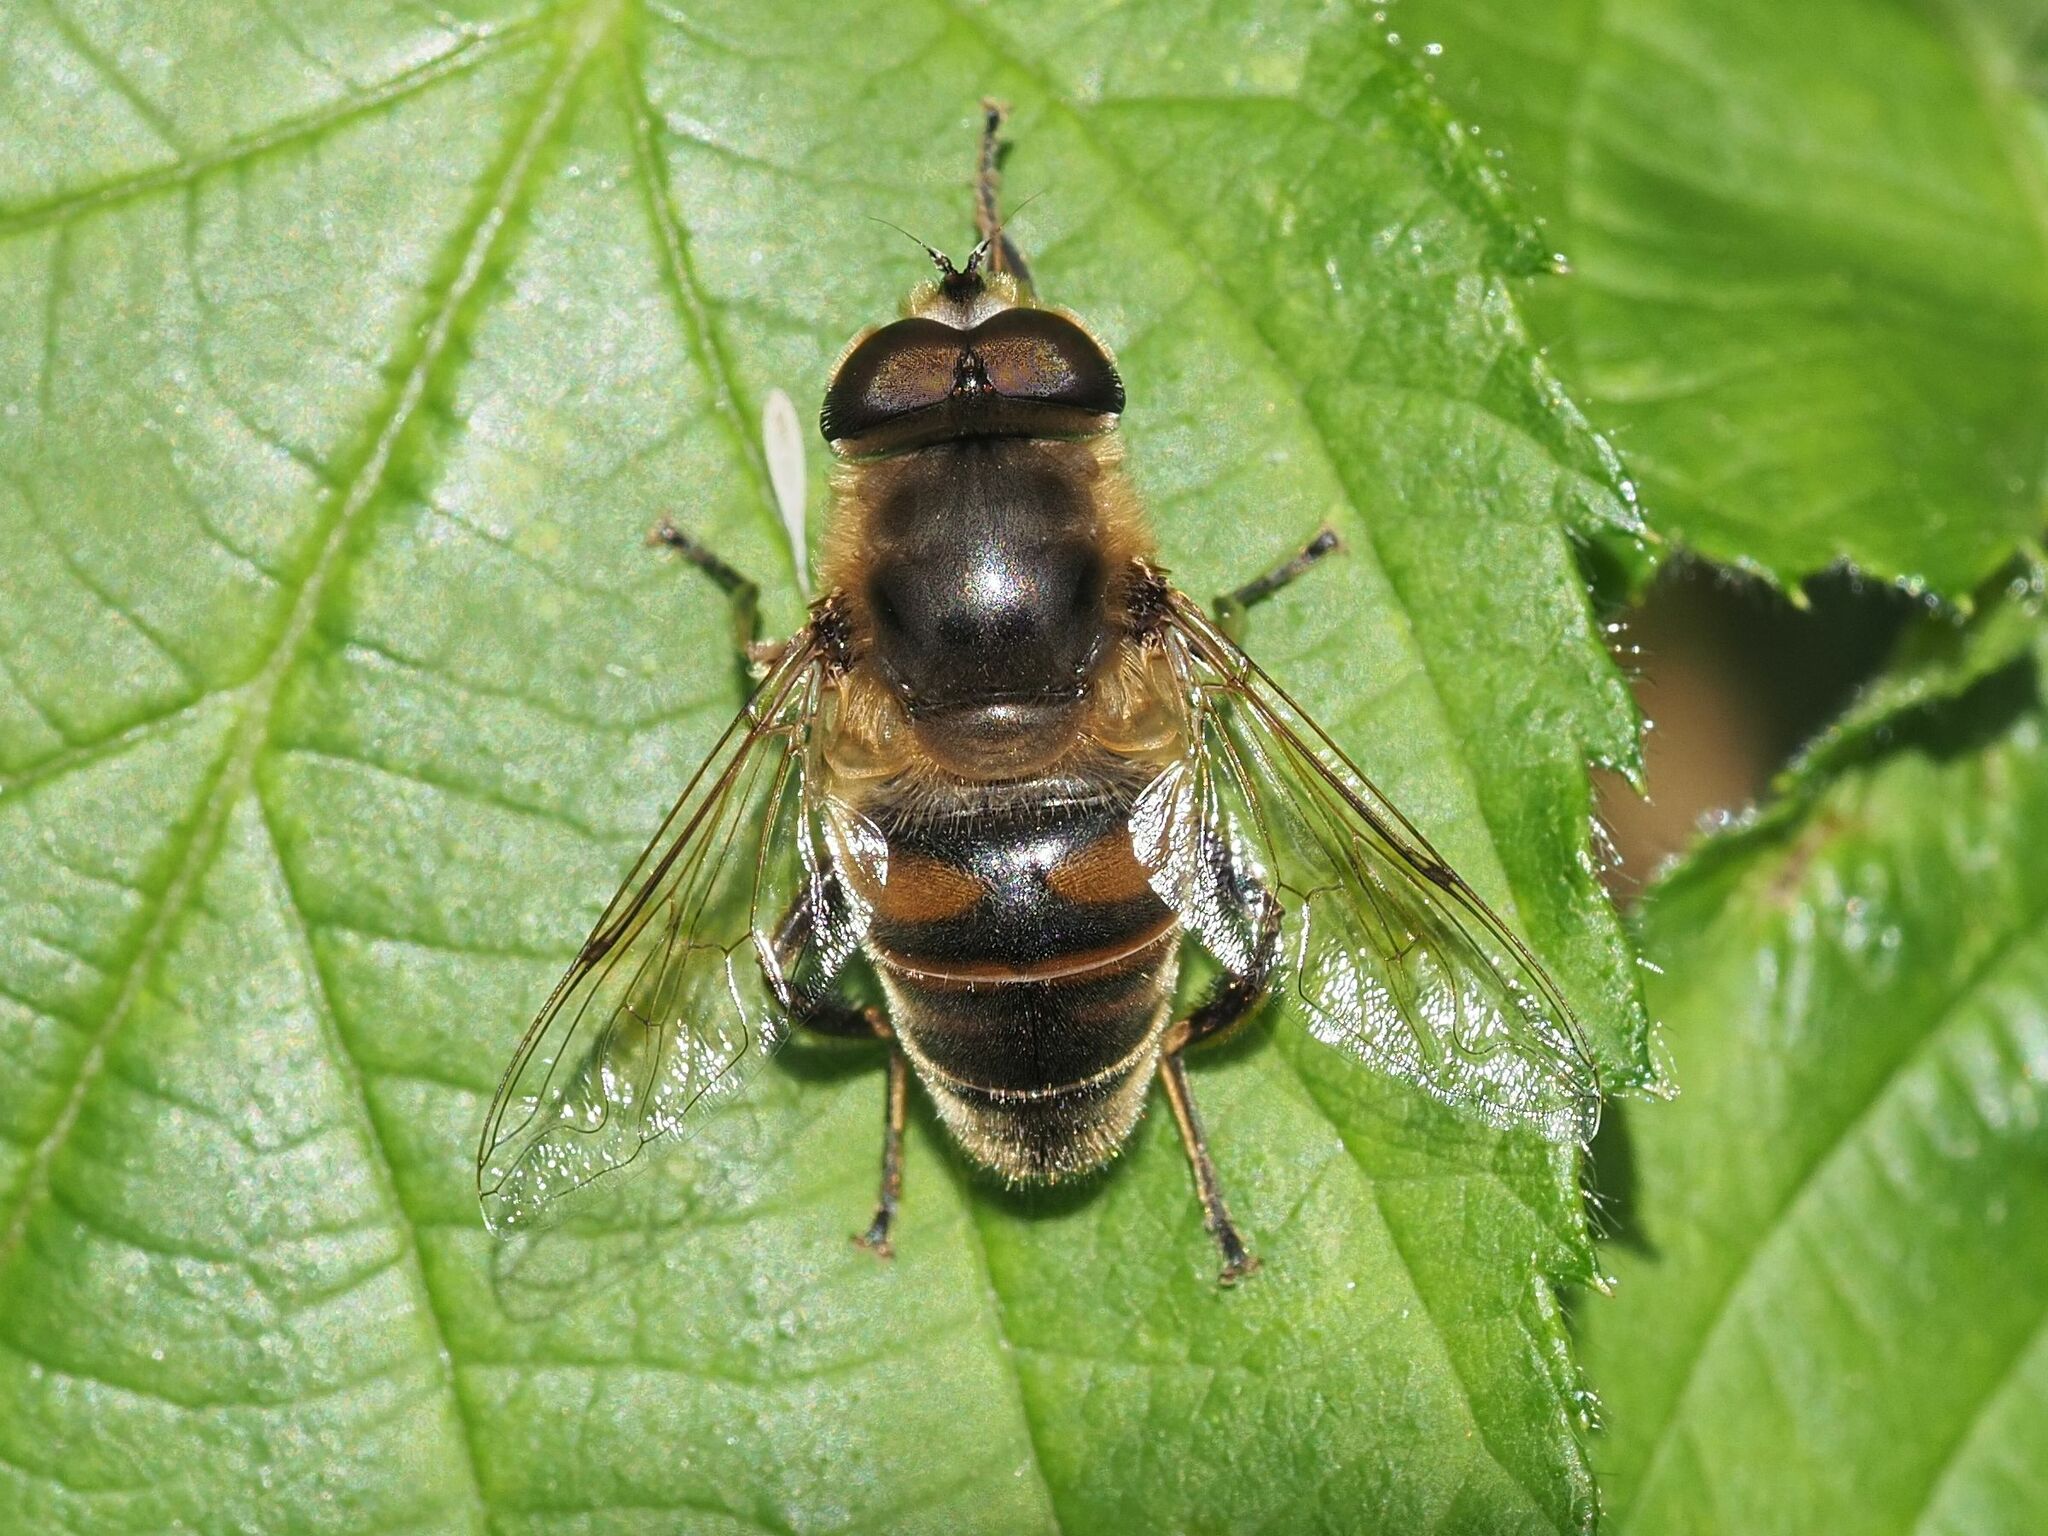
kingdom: Animalia
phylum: Arthropoda
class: Insecta
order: Diptera
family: Syrphidae
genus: Eristalis
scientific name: Eristalis tenax
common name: Drone fly
